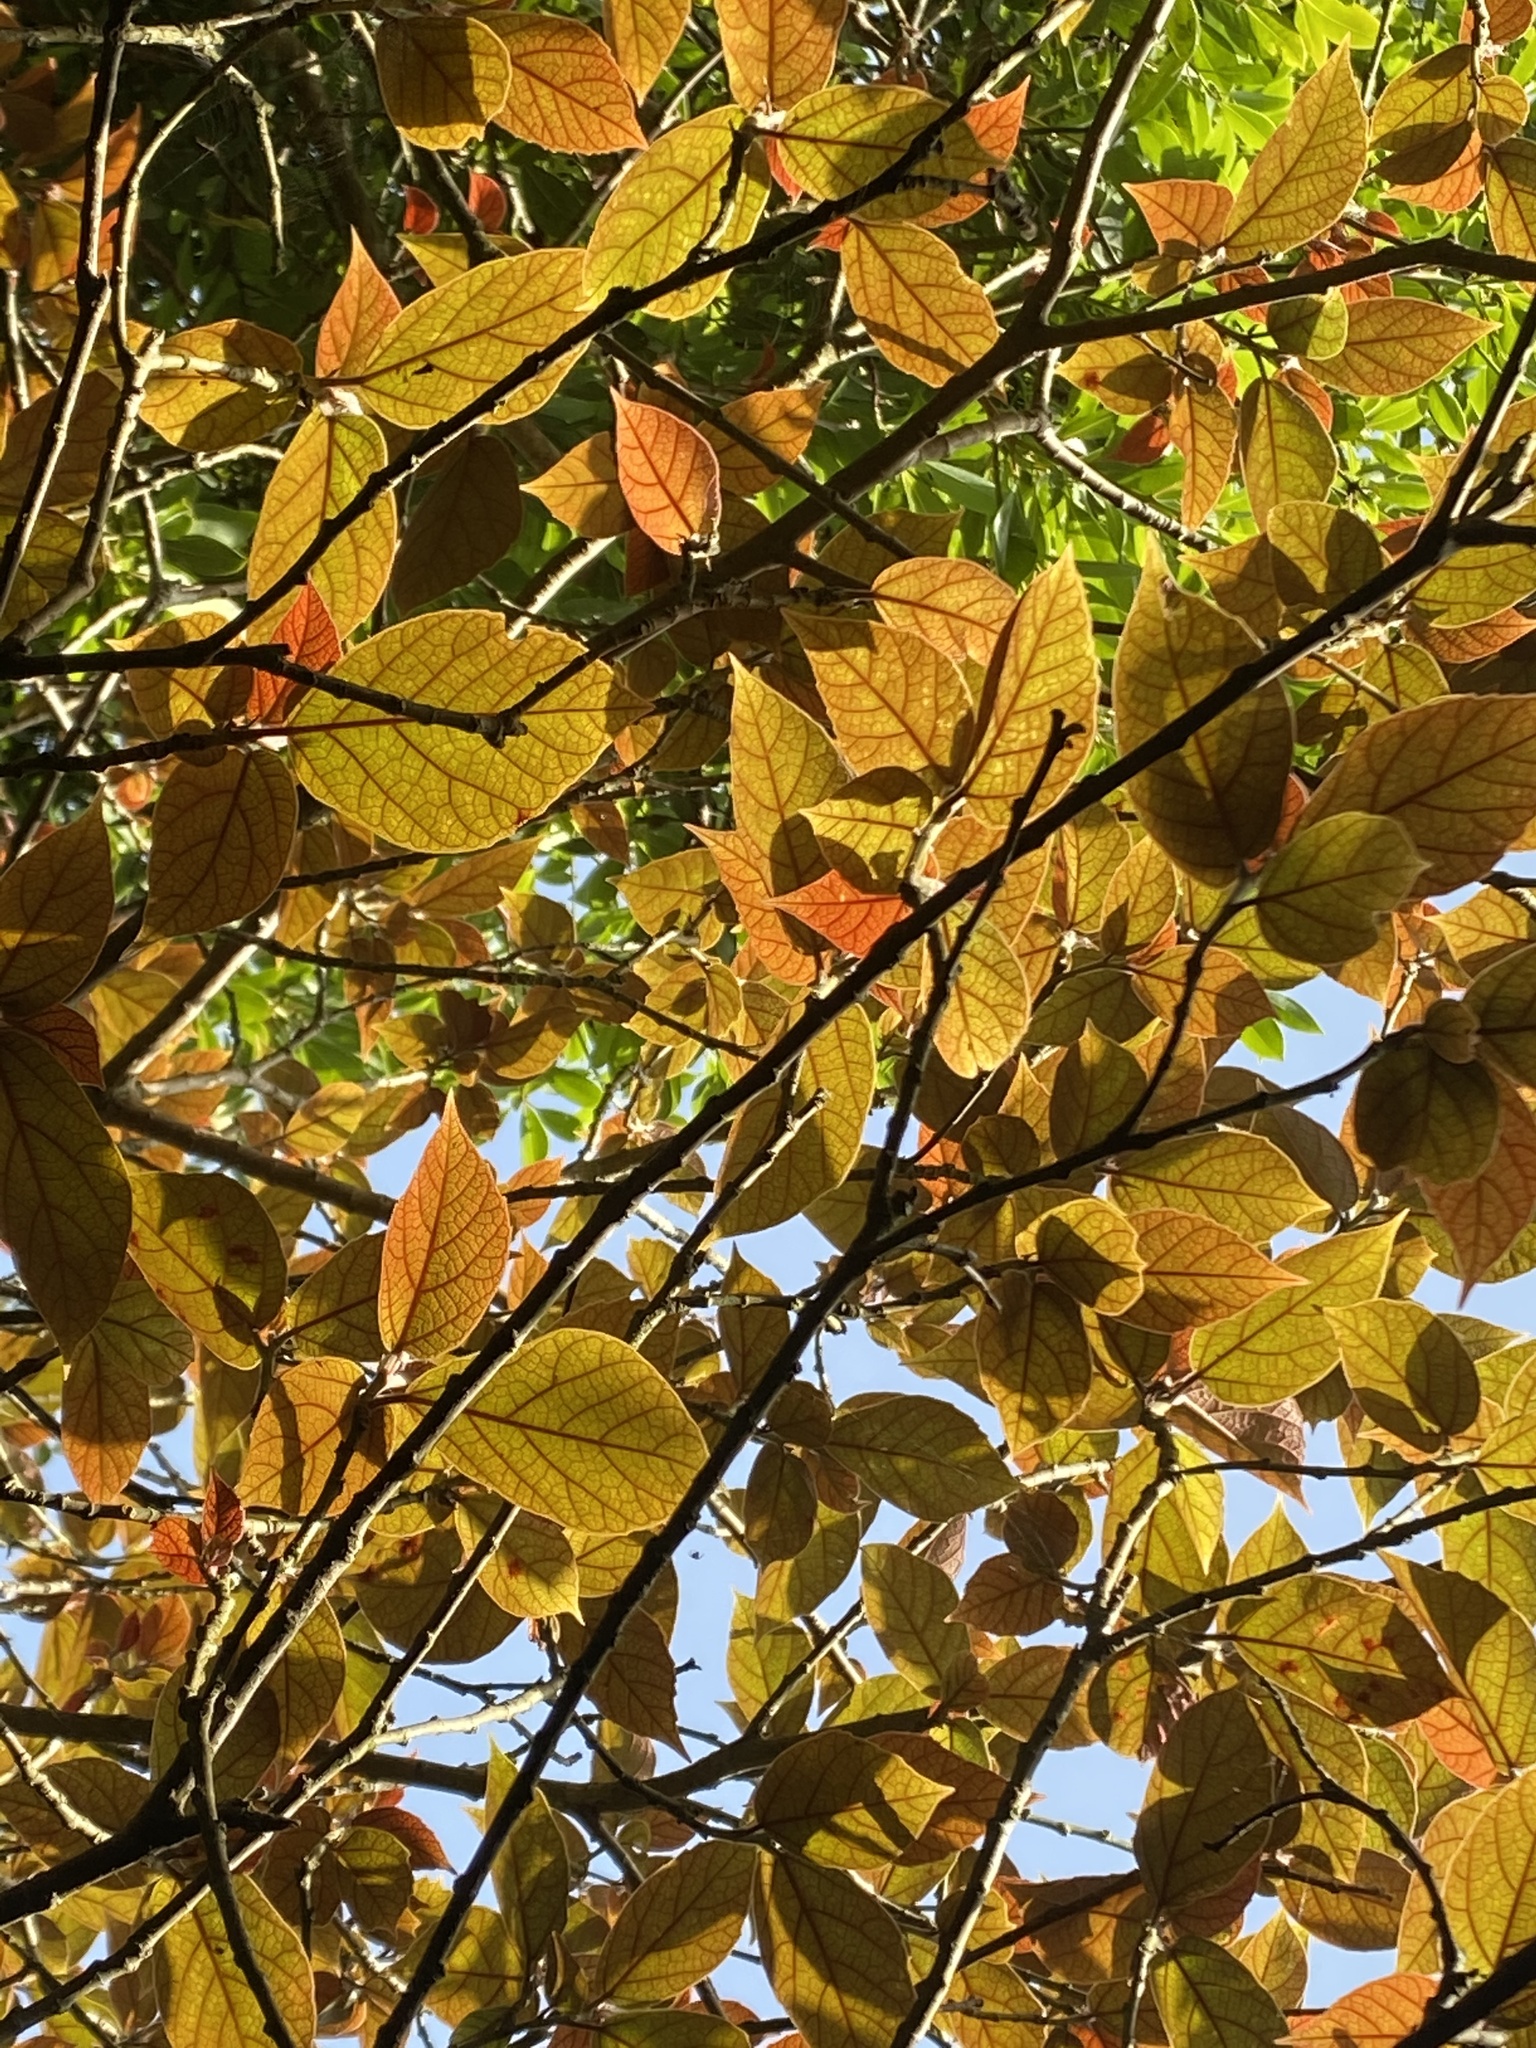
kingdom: Plantae
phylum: Tracheophyta
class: Magnoliopsida
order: Rosales
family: Moraceae
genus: Ficus
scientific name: Ficus erecta
